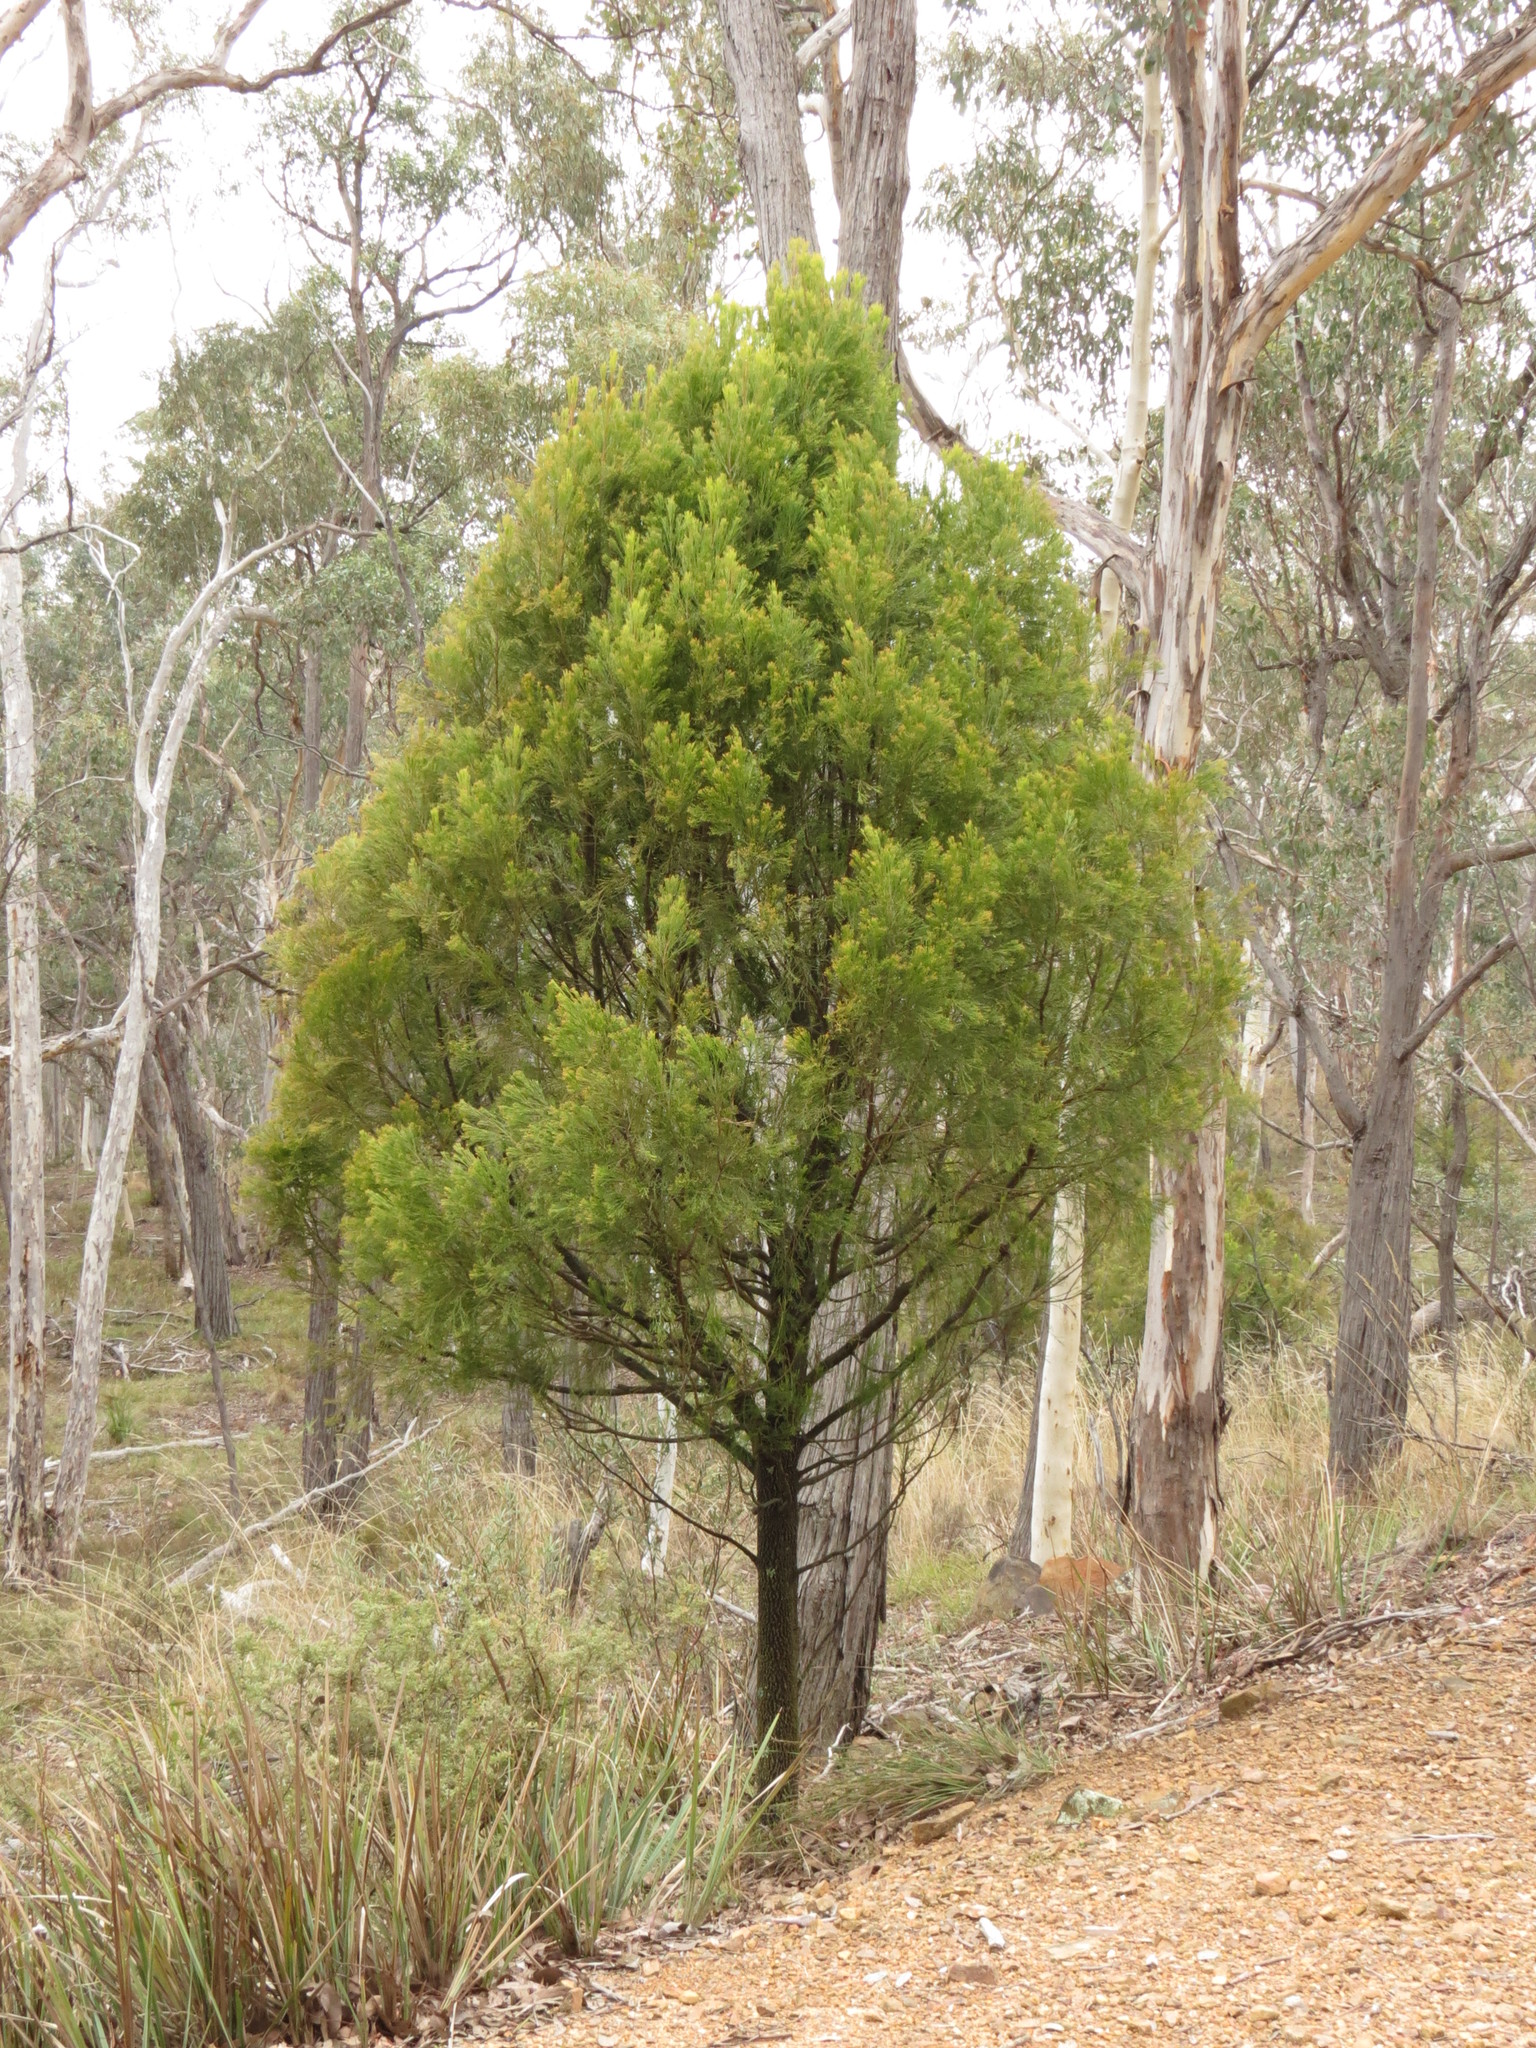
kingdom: Plantae
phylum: Tracheophyta
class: Magnoliopsida
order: Santalales
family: Santalaceae
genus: Exocarpos
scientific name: Exocarpos cupressiformis
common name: Cherry ballart
